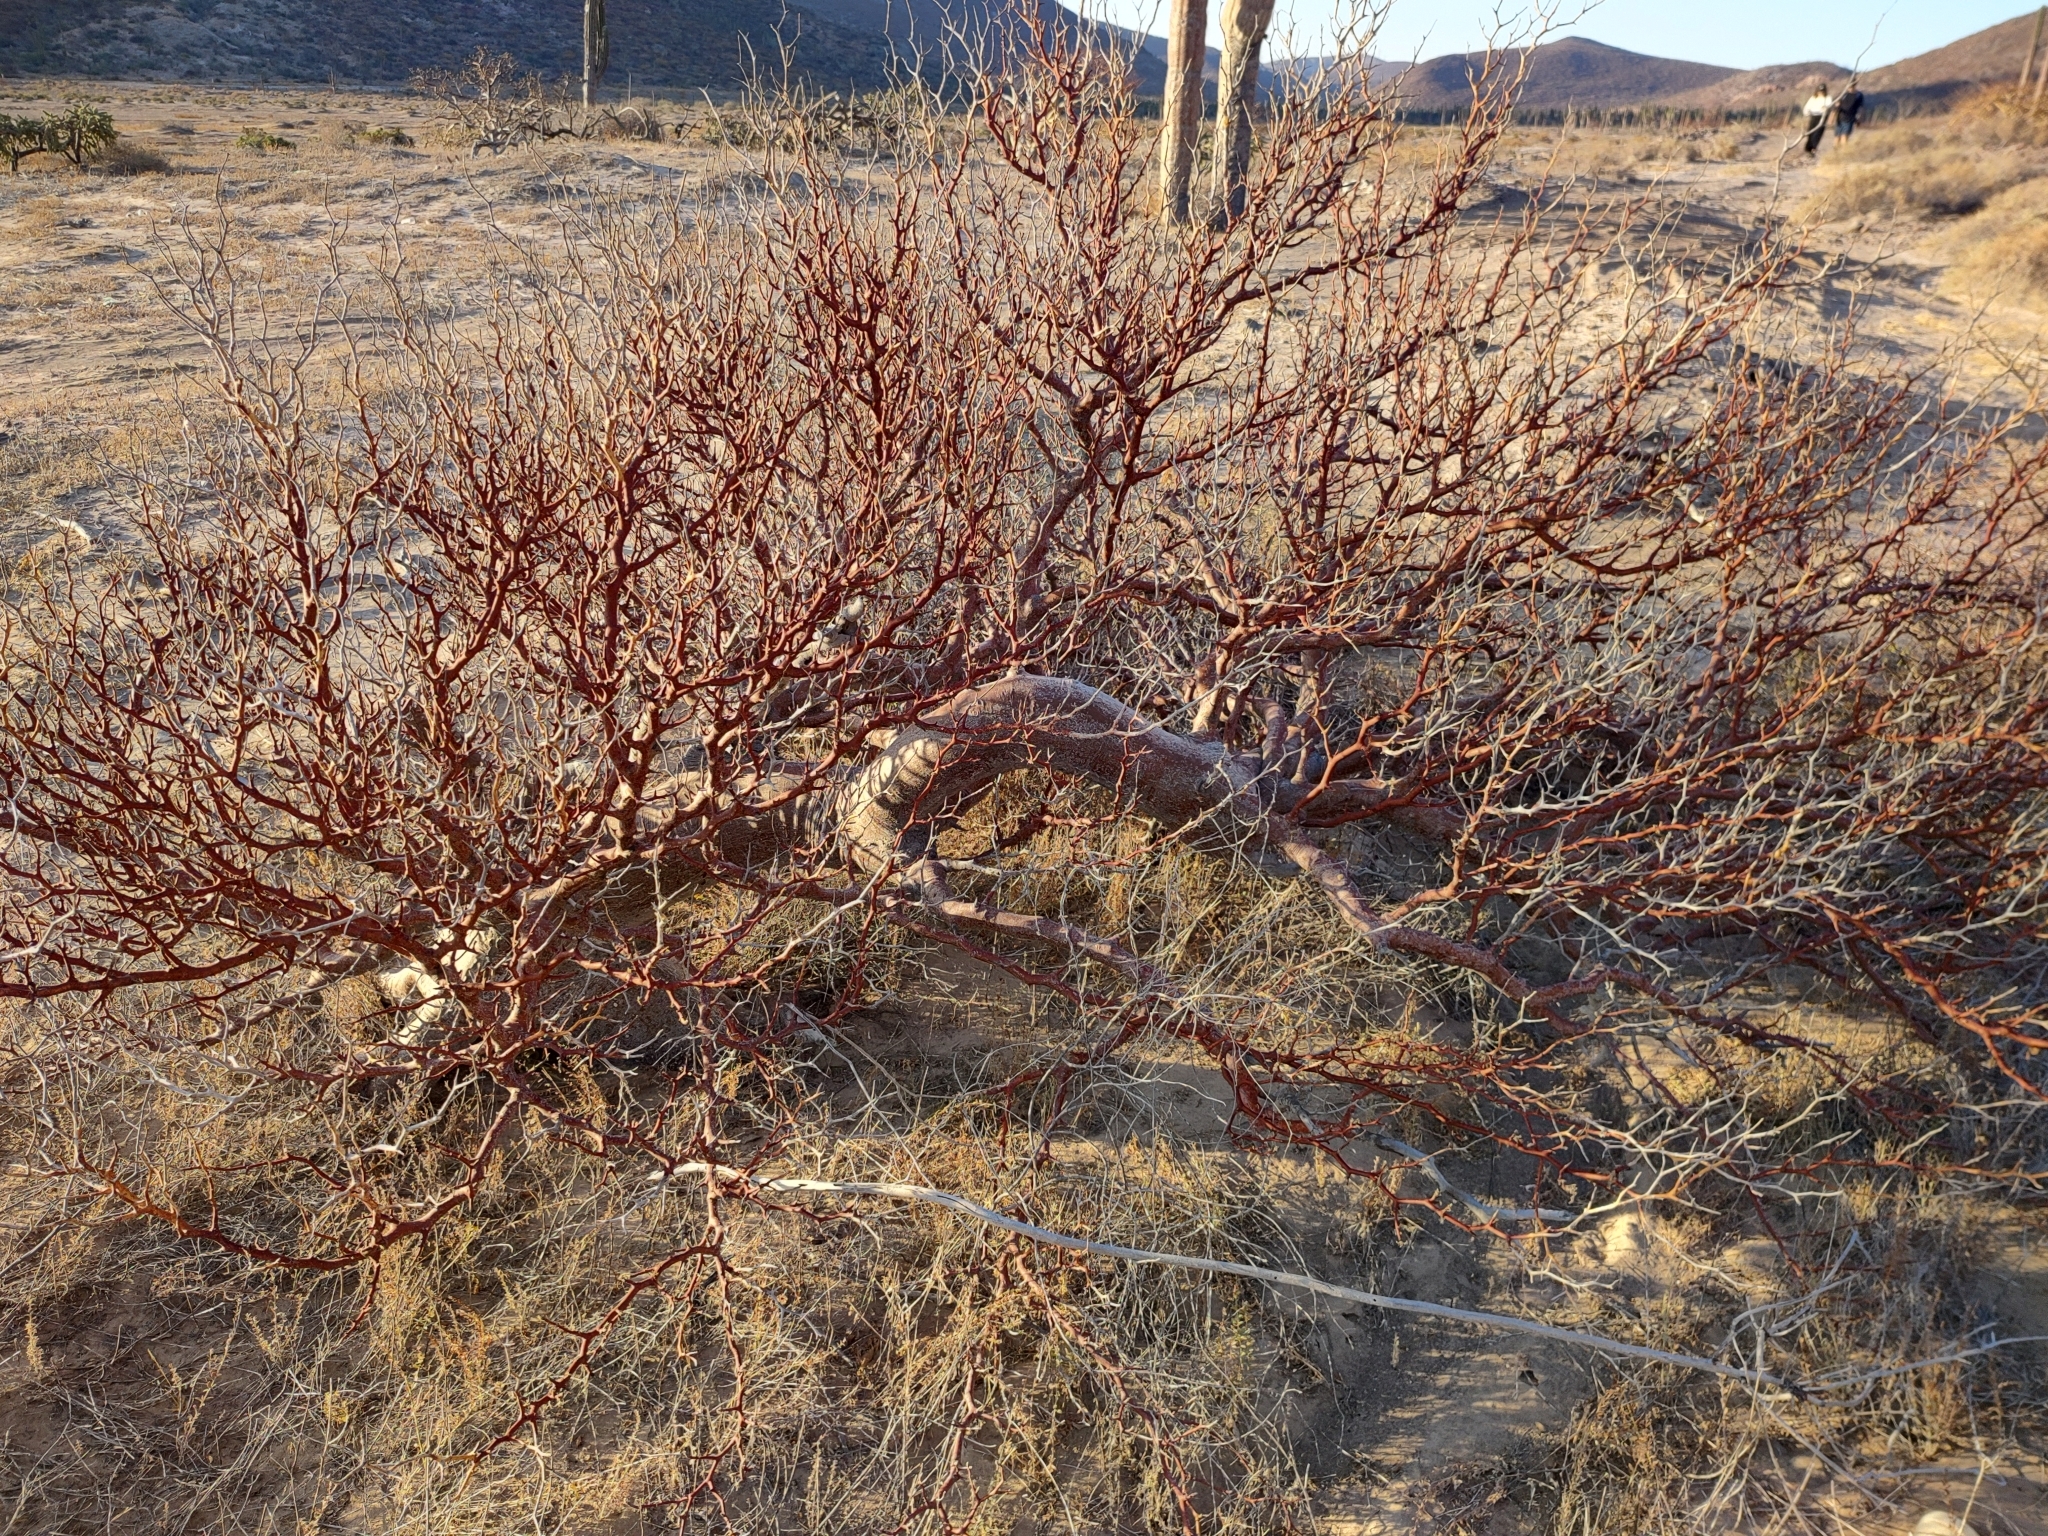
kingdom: Plantae
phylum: Tracheophyta
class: Magnoliopsida
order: Sapindales
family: Burseraceae
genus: Bursera
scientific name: Bursera hindsiana
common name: Red elephant tree
